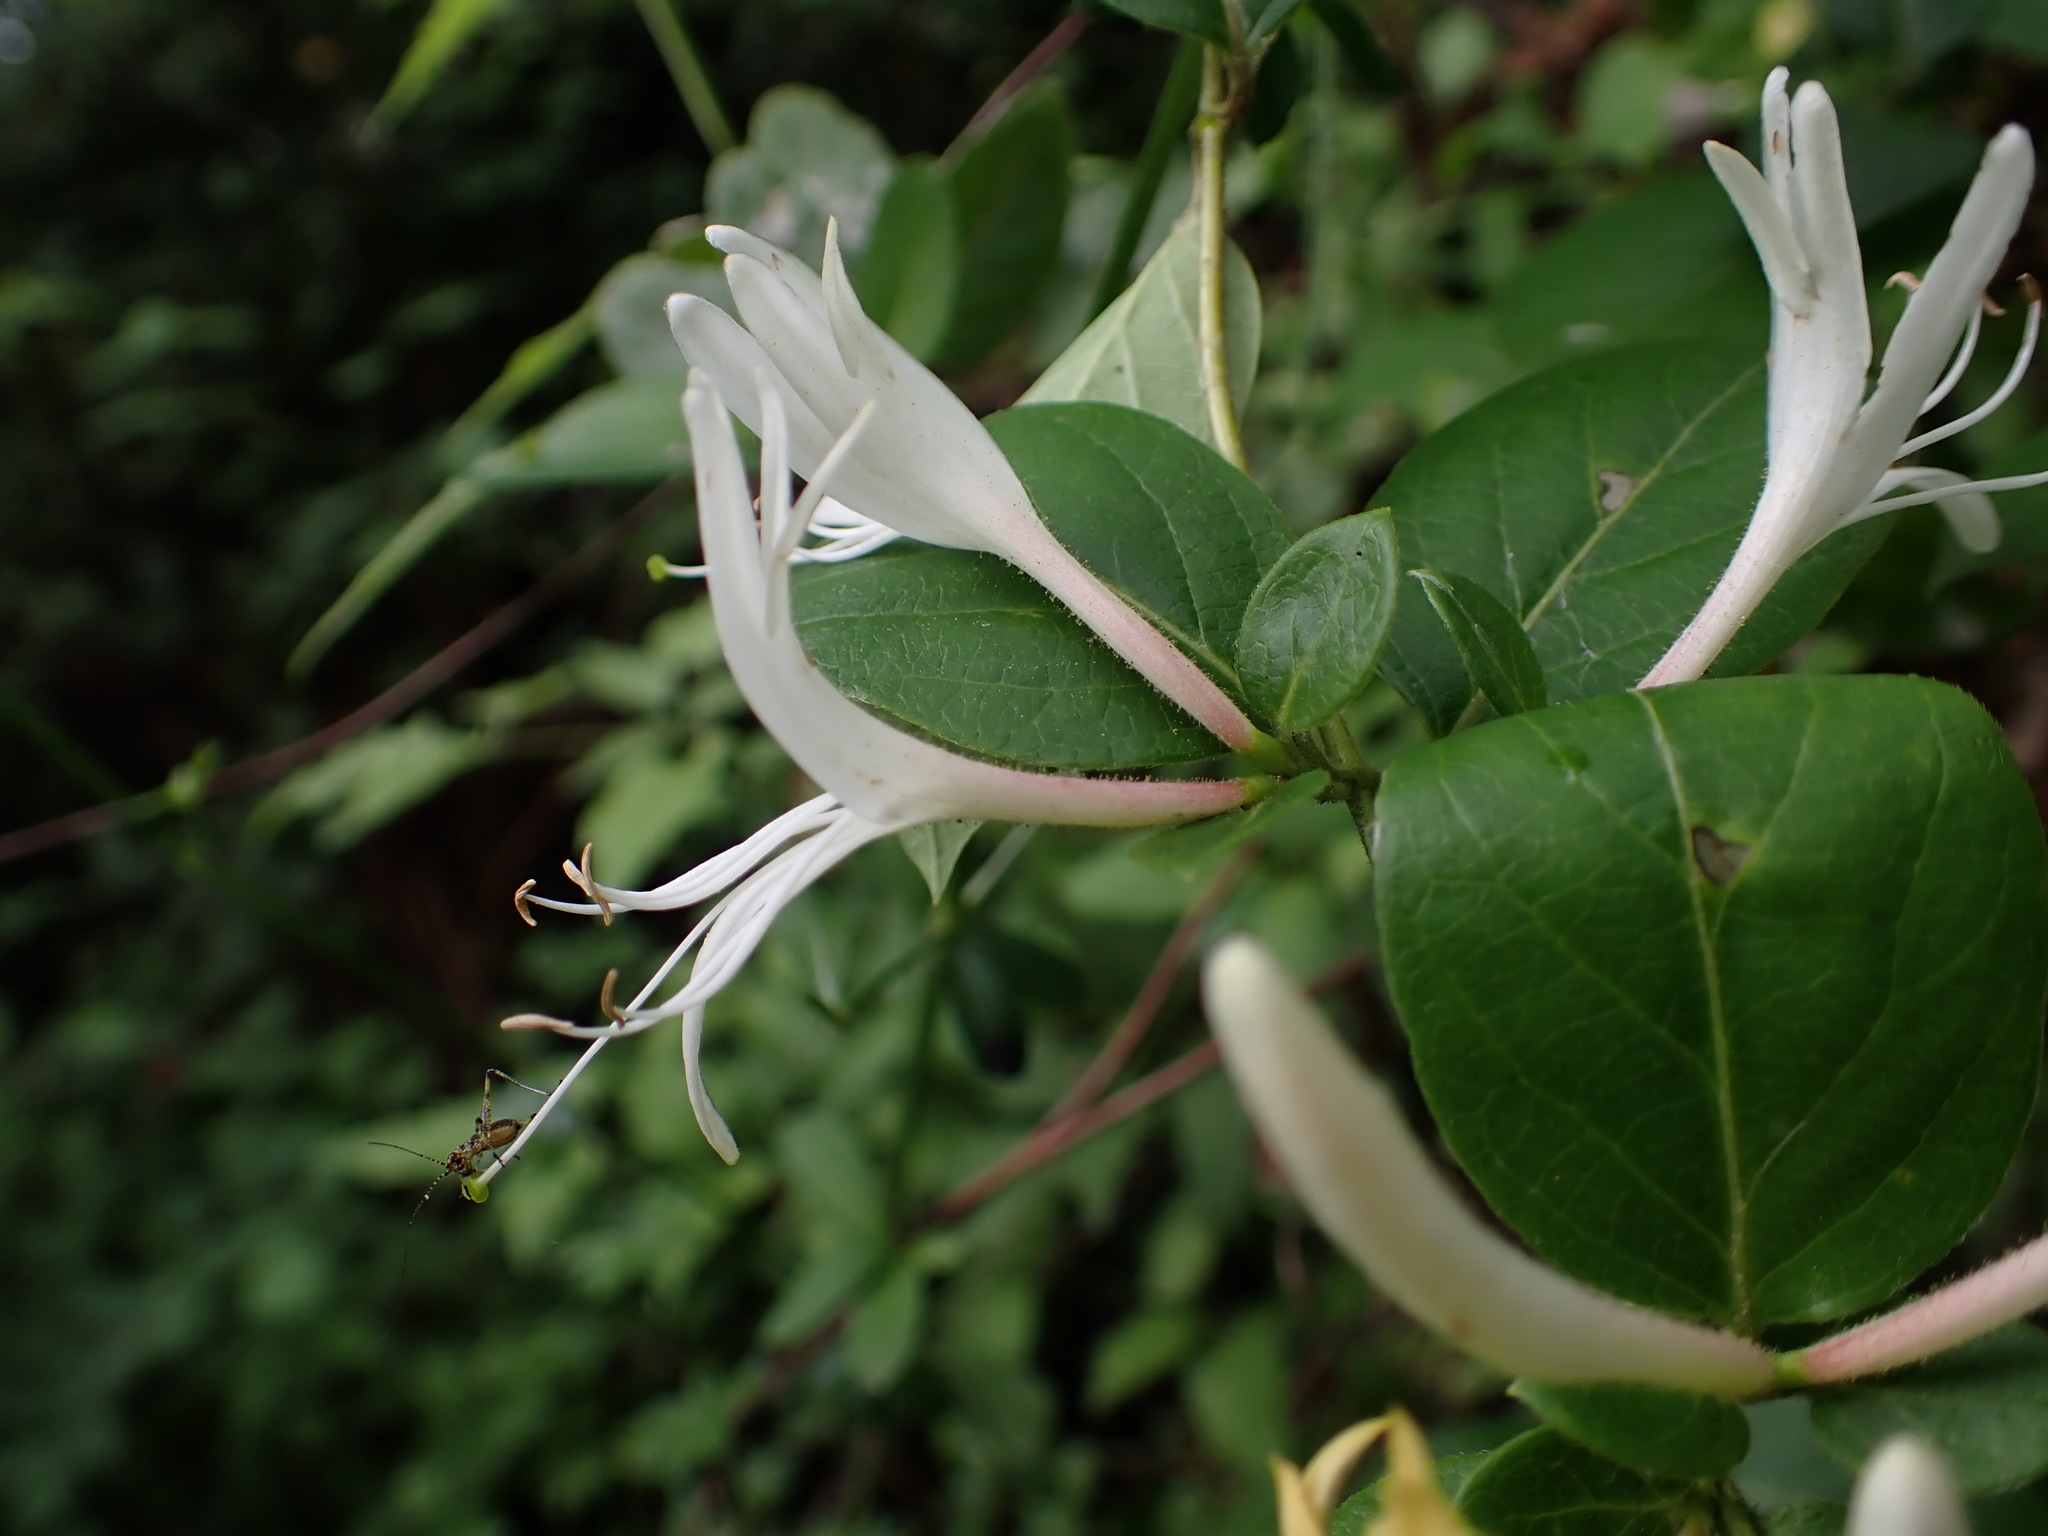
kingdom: Plantae
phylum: Tracheophyta
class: Magnoliopsida
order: Dipsacales
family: Caprifoliaceae
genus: Lonicera
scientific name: Lonicera japonica
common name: Japanese honeysuckle
